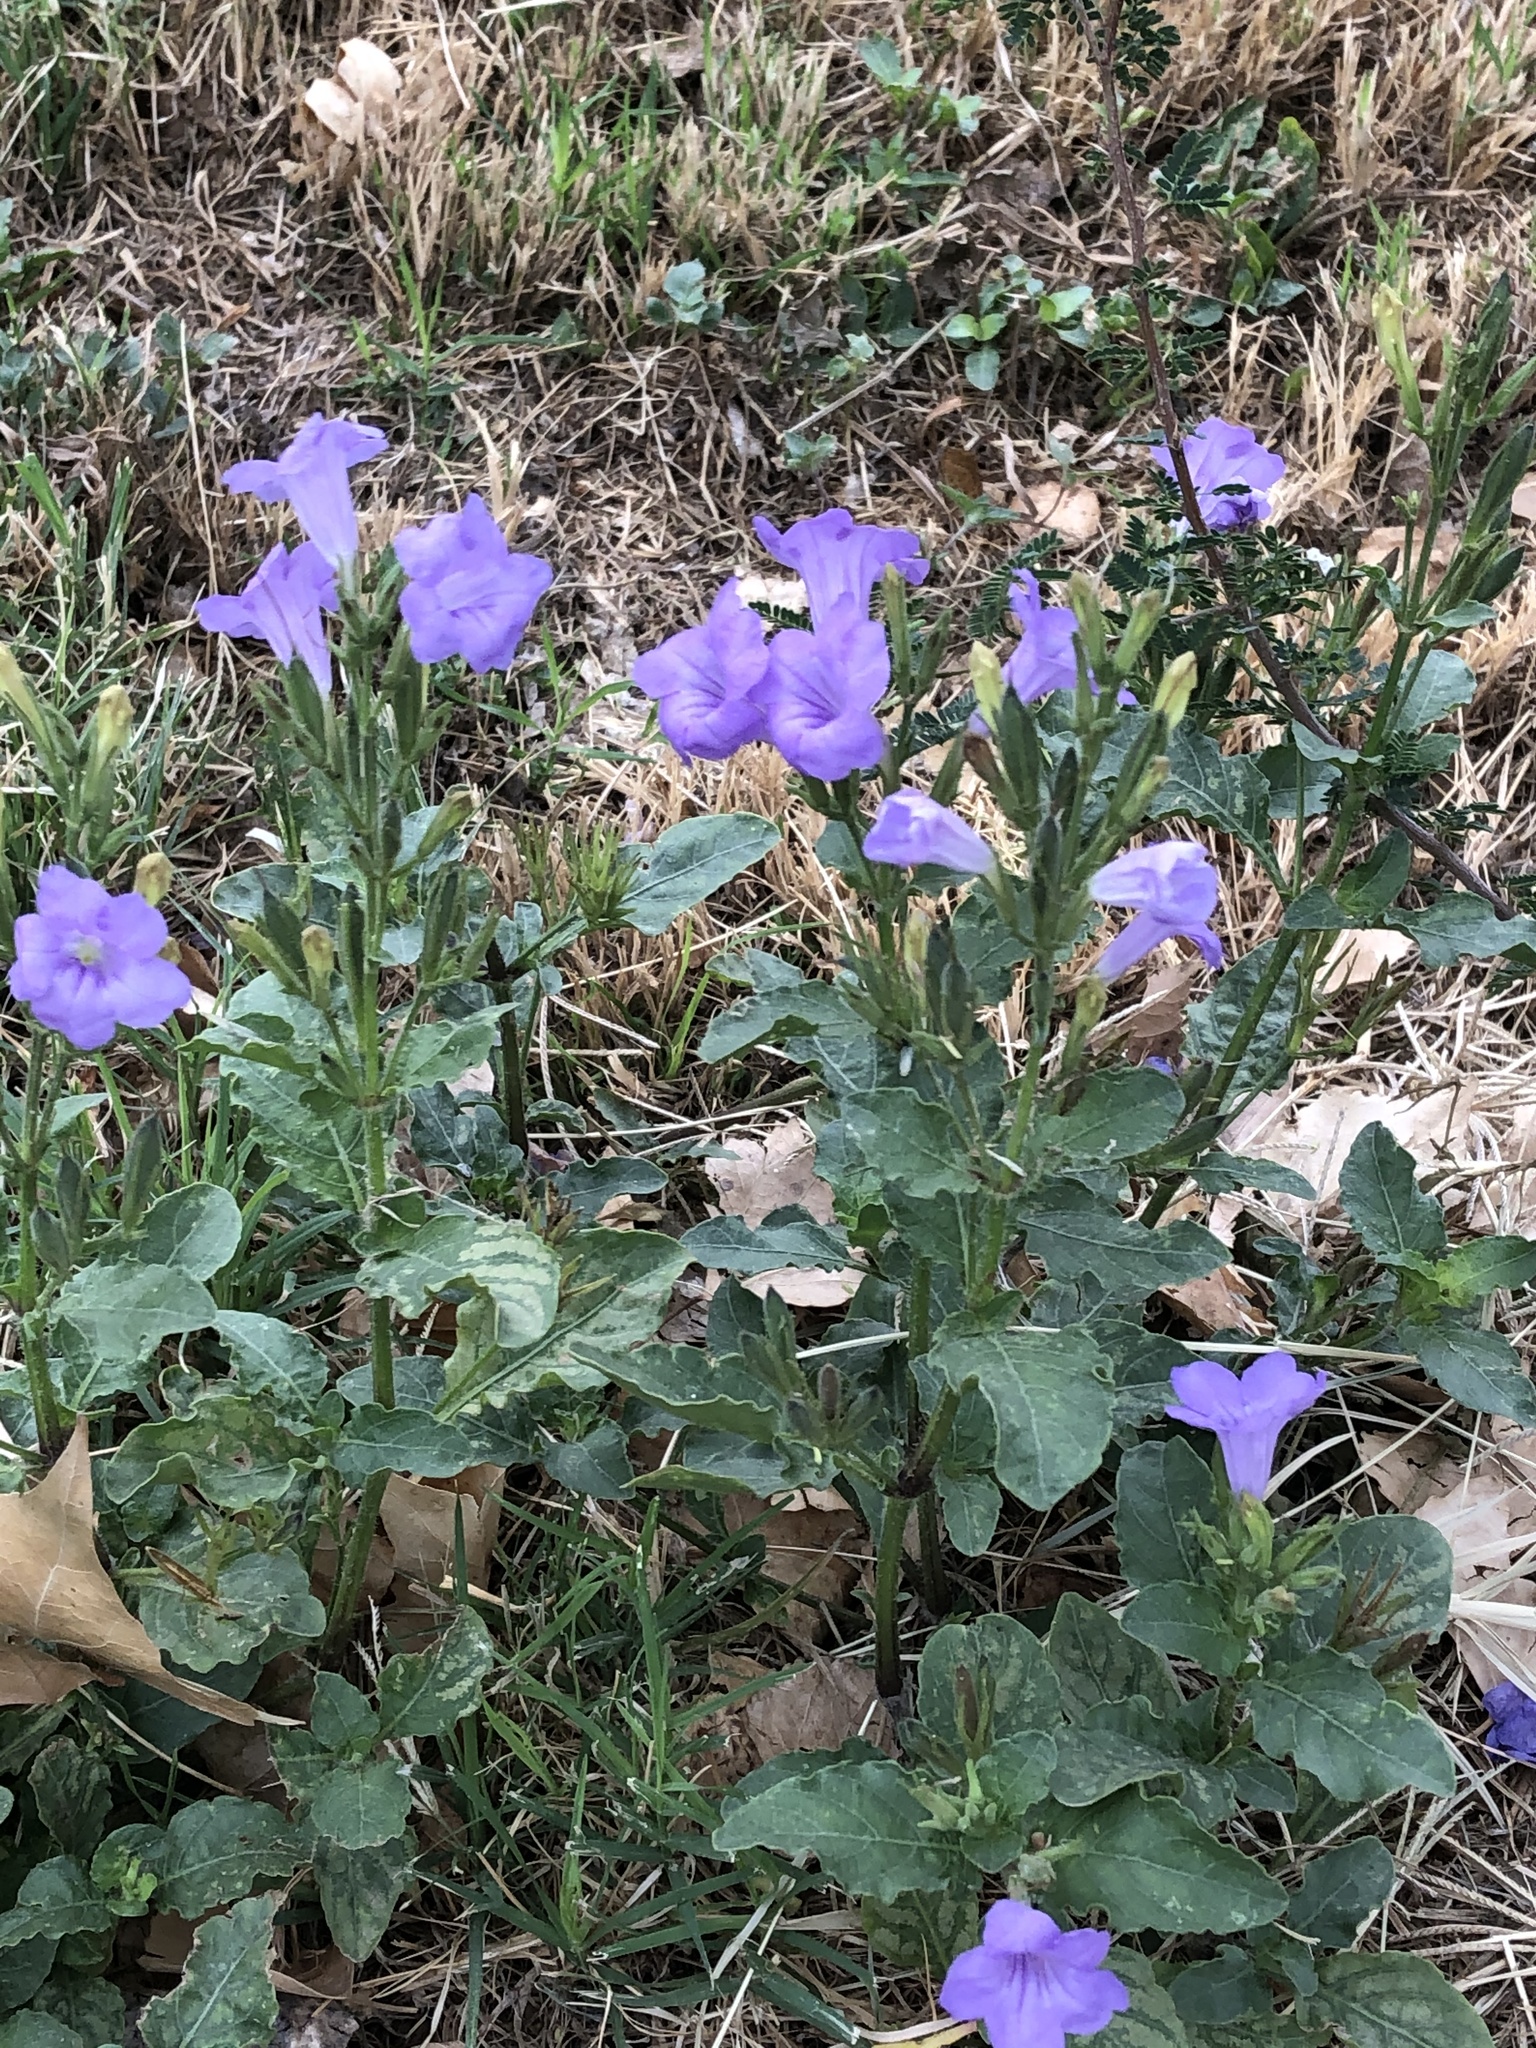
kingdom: Plantae
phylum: Tracheophyta
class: Magnoliopsida
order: Lamiales
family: Acanthaceae
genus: Ruellia
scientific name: Ruellia ciliatiflora
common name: Hairyflower wild petunia
